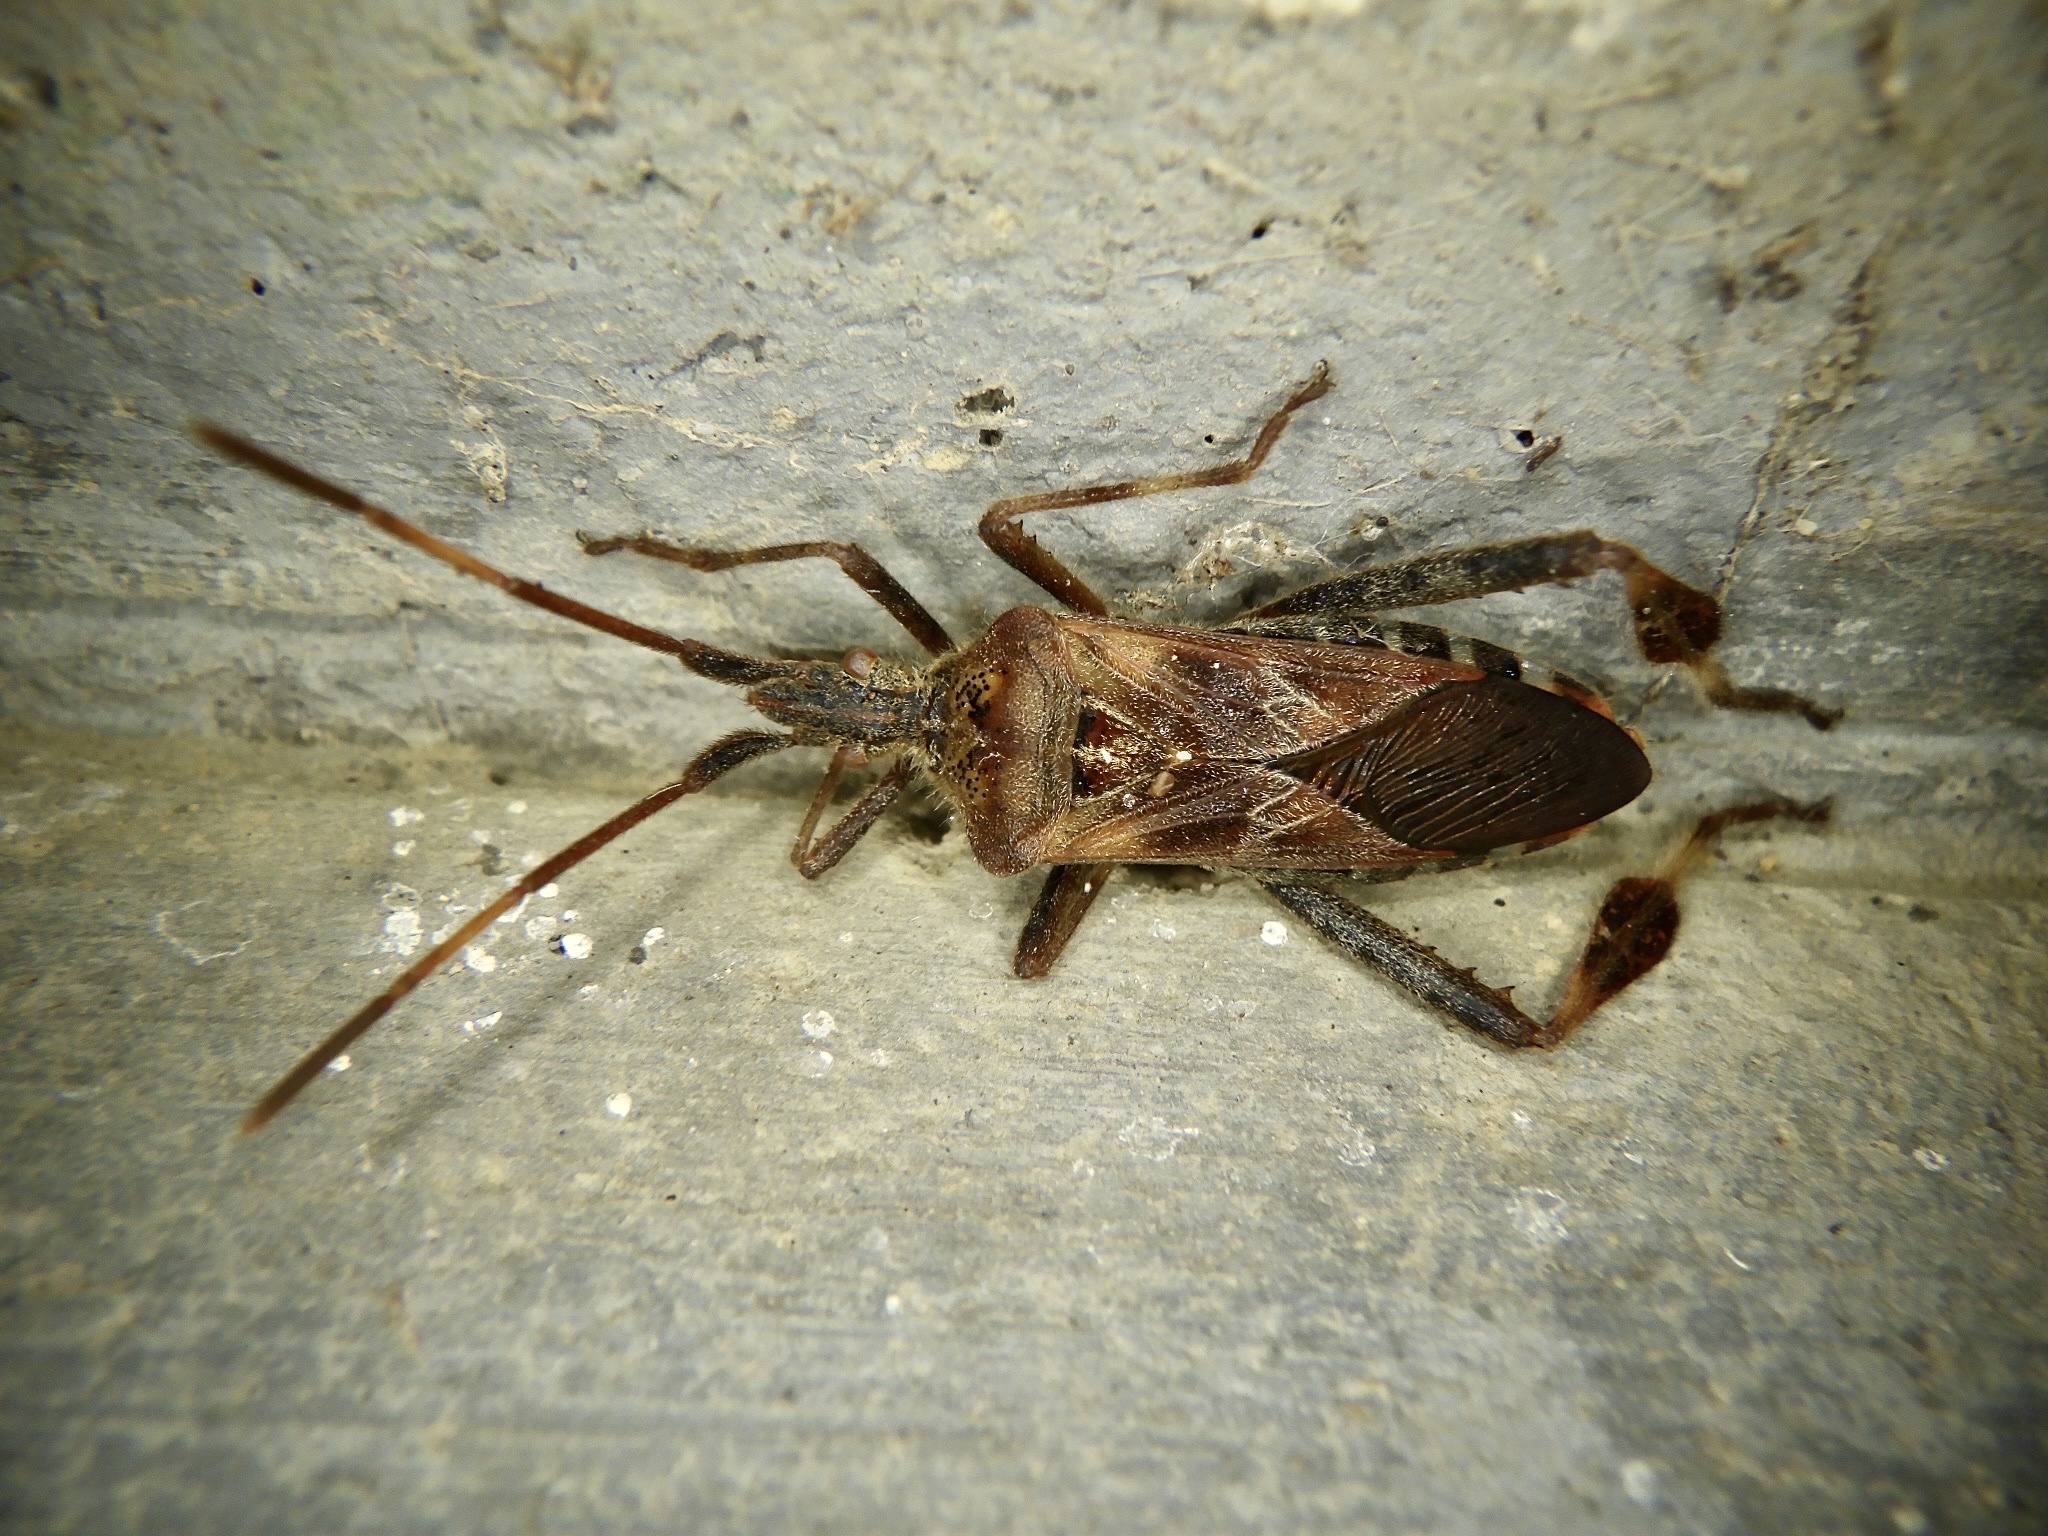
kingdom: Animalia
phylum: Arthropoda
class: Insecta
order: Hemiptera
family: Coreidae
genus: Leptoglossus
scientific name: Leptoglossus occidentalis
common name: Western conifer-seed bug
